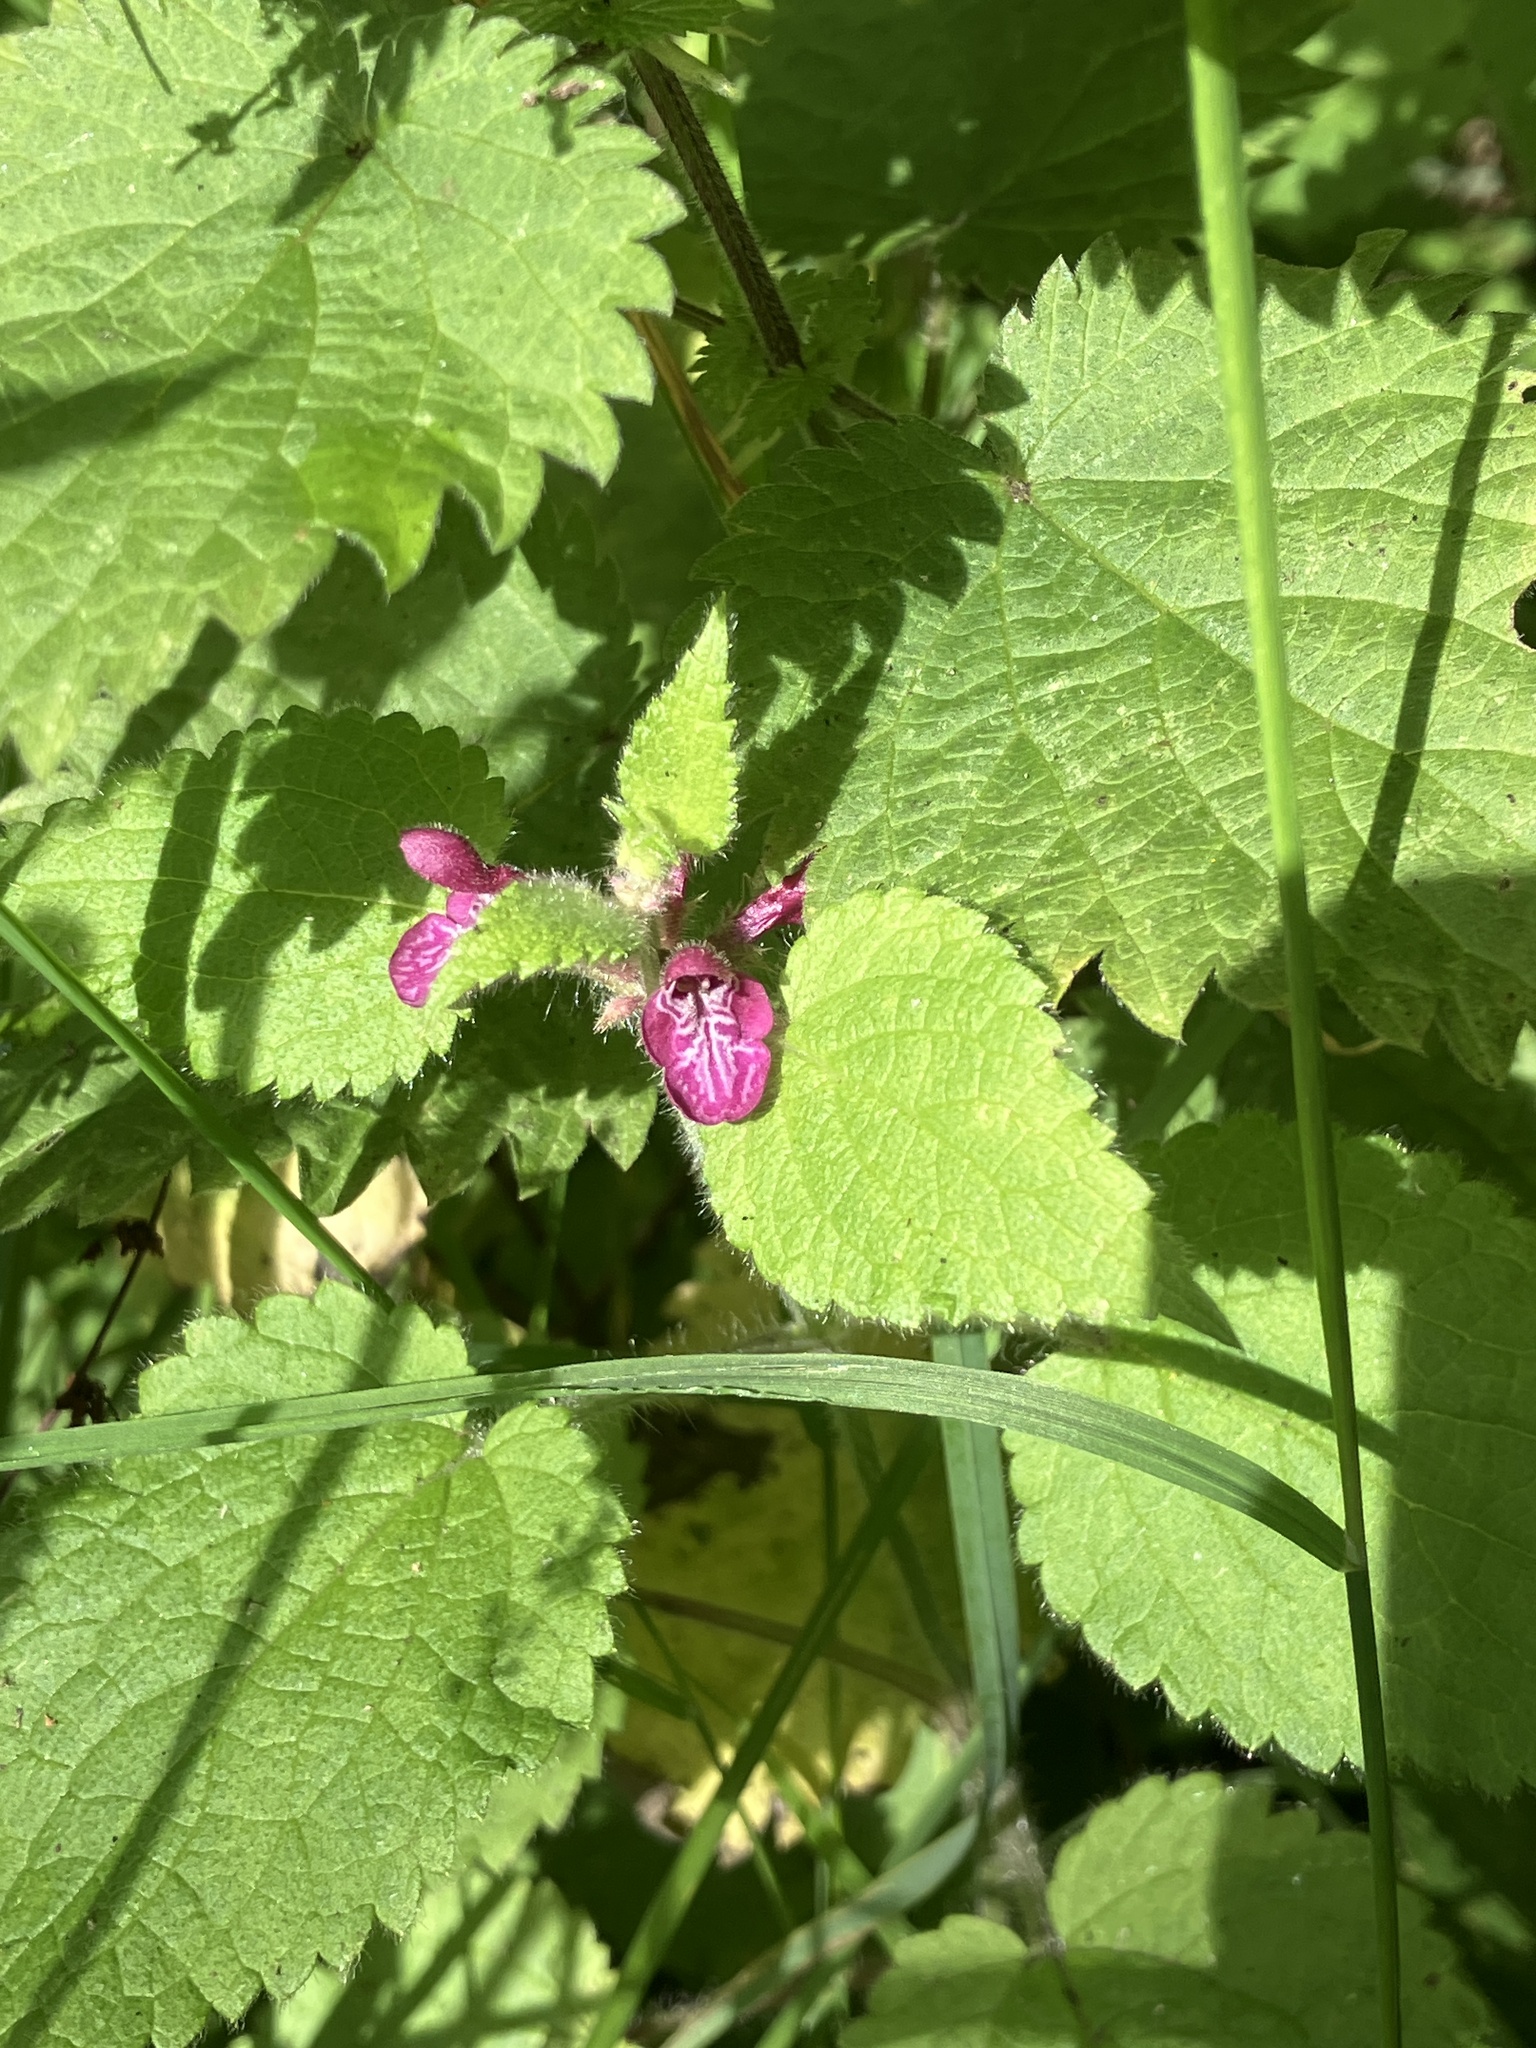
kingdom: Plantae
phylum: Tracheophyta
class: Magnoliopsida
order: Lamiales
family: Lamiaceae
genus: Stachys
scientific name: Stachys sylvatica
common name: Hedge woundwort
